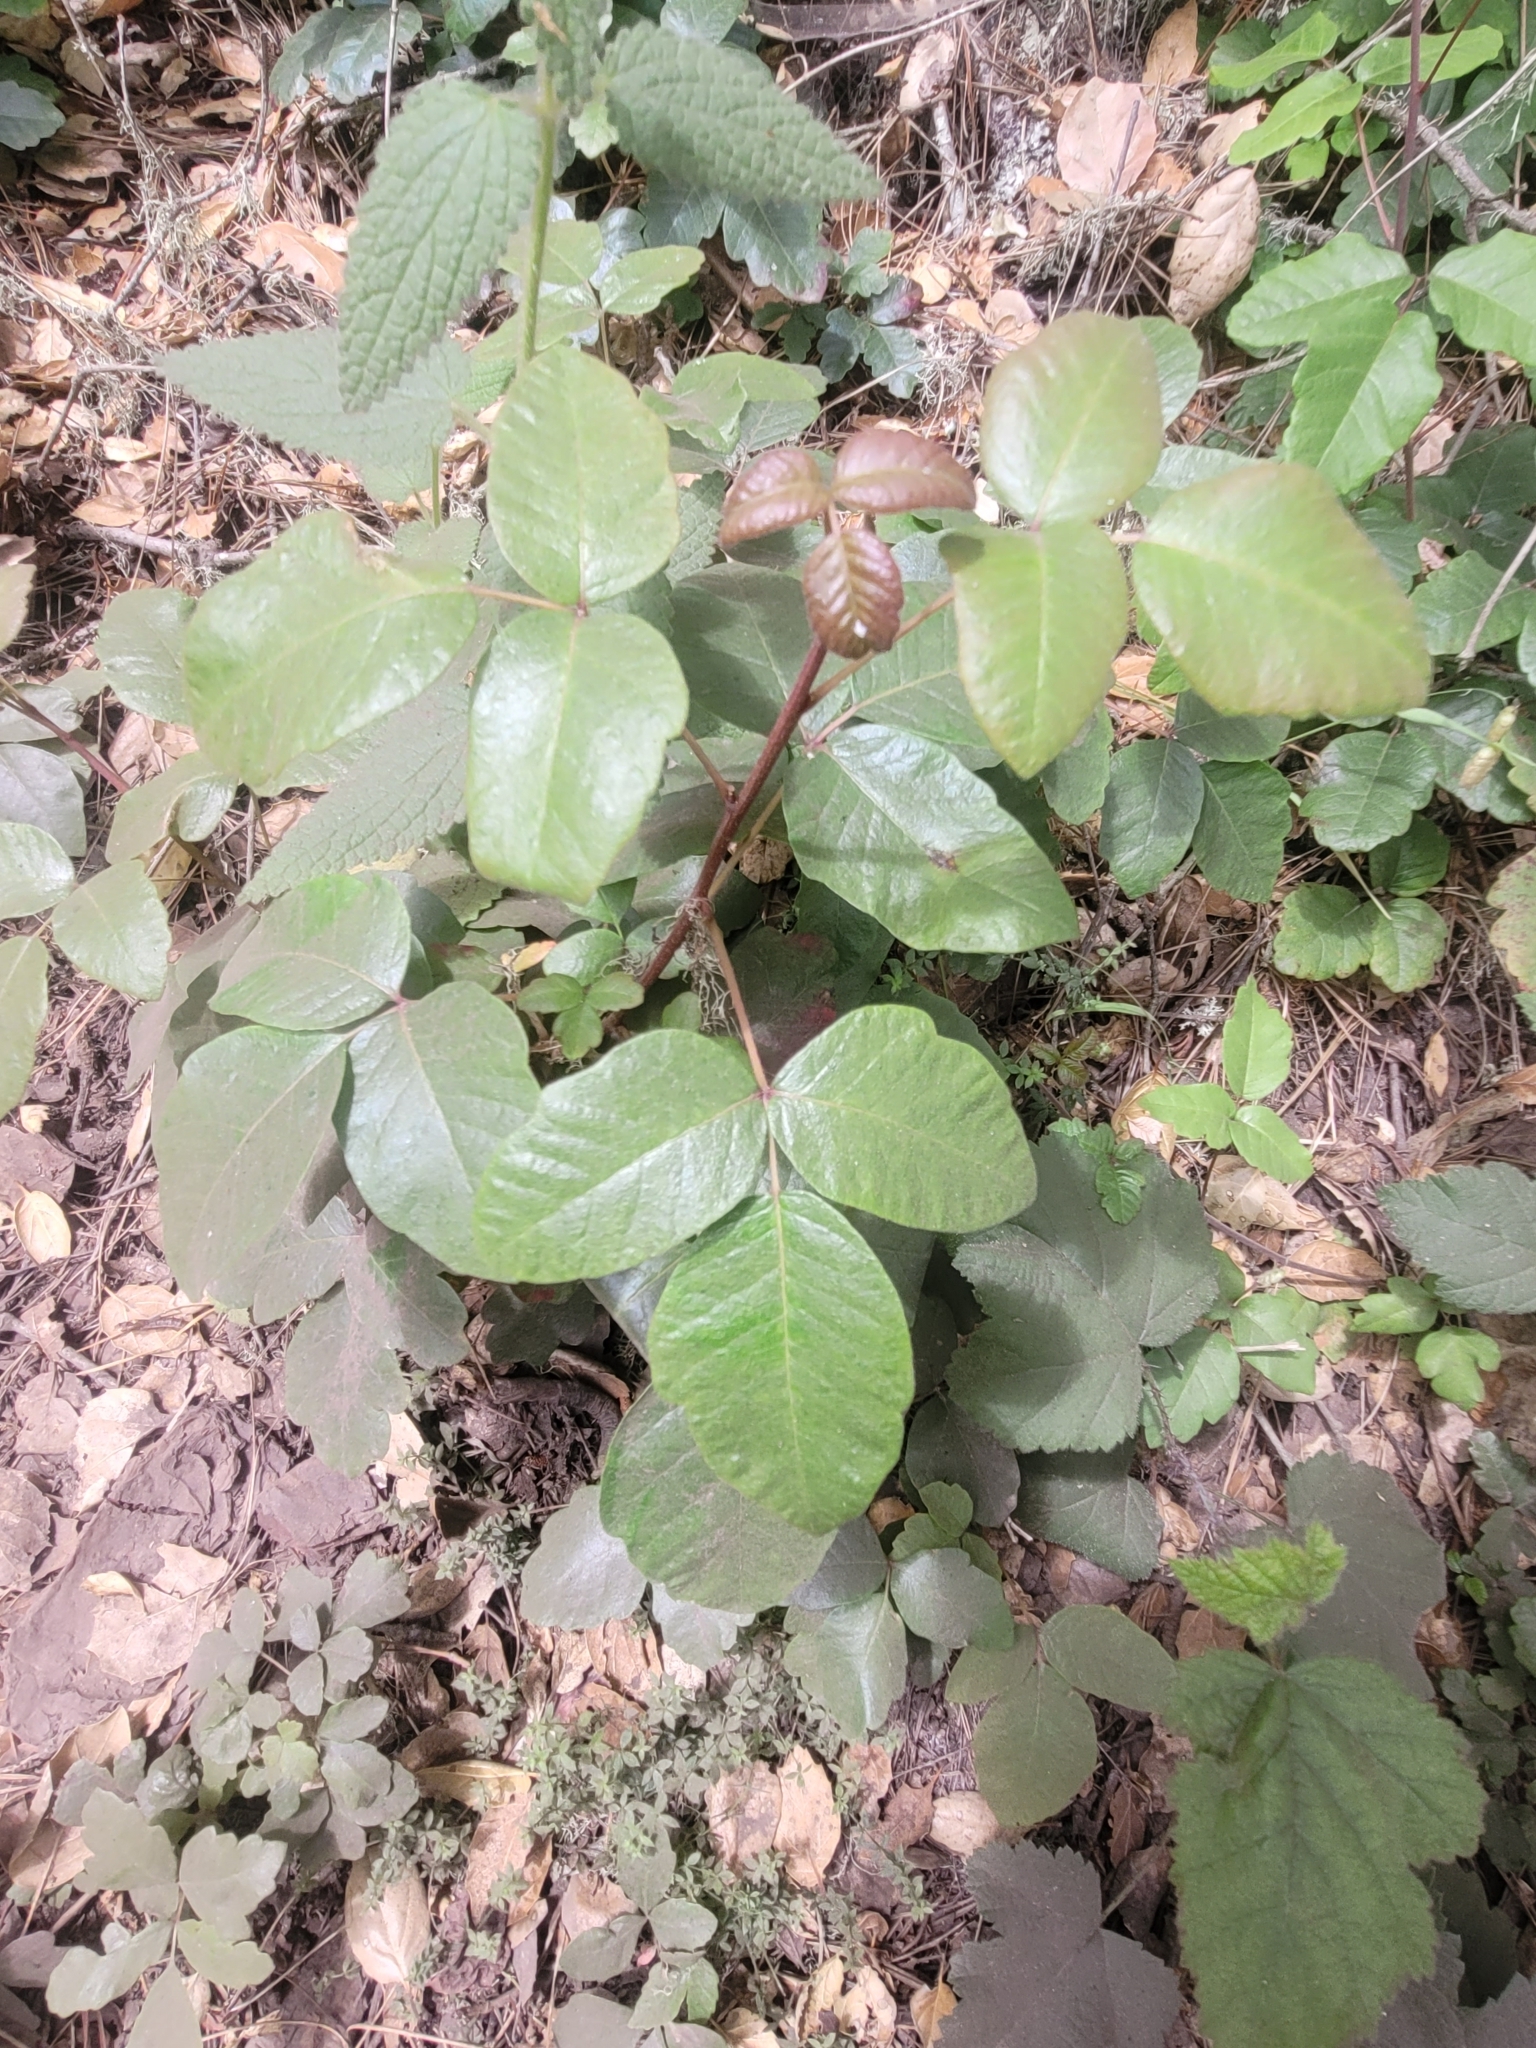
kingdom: Plantae
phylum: Tracheophyta
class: Magnoliopsida
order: Sapindales
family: Anacardiaceae
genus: Toxicodendron
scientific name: Toxicodendron diversilobum
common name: Pacific poison-oak
